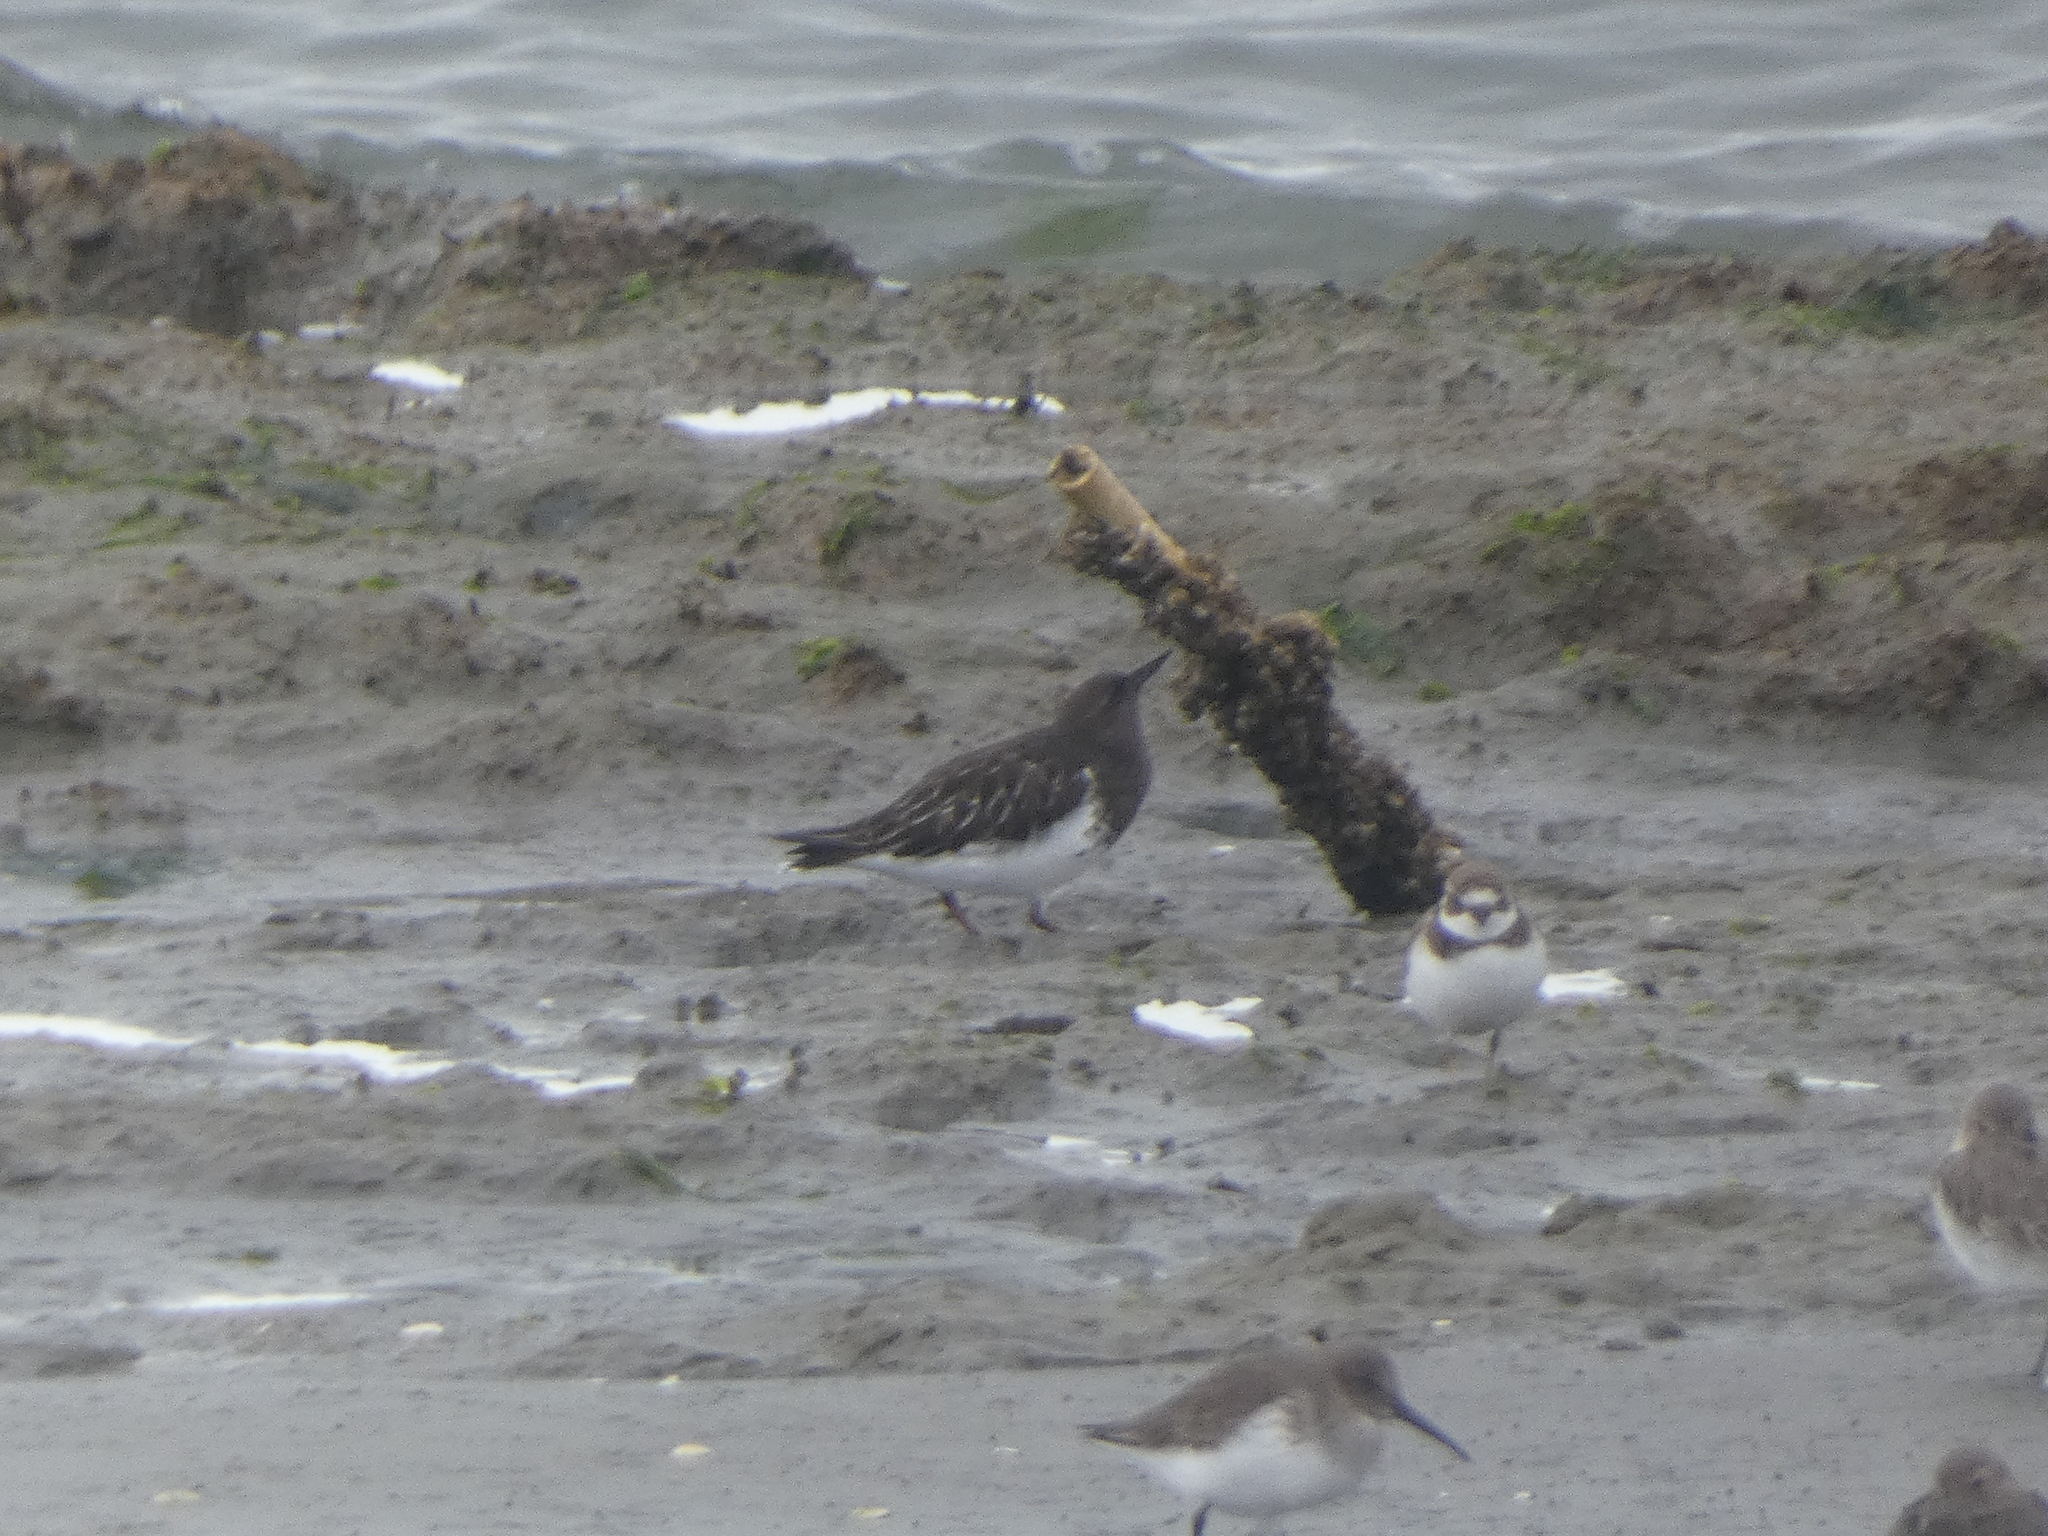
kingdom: Animalia
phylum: Chordata
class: Aves
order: Charadriiformes
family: Scolopacidae
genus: Arenaria
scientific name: Arenaria melanocephala
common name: Black turnstone
